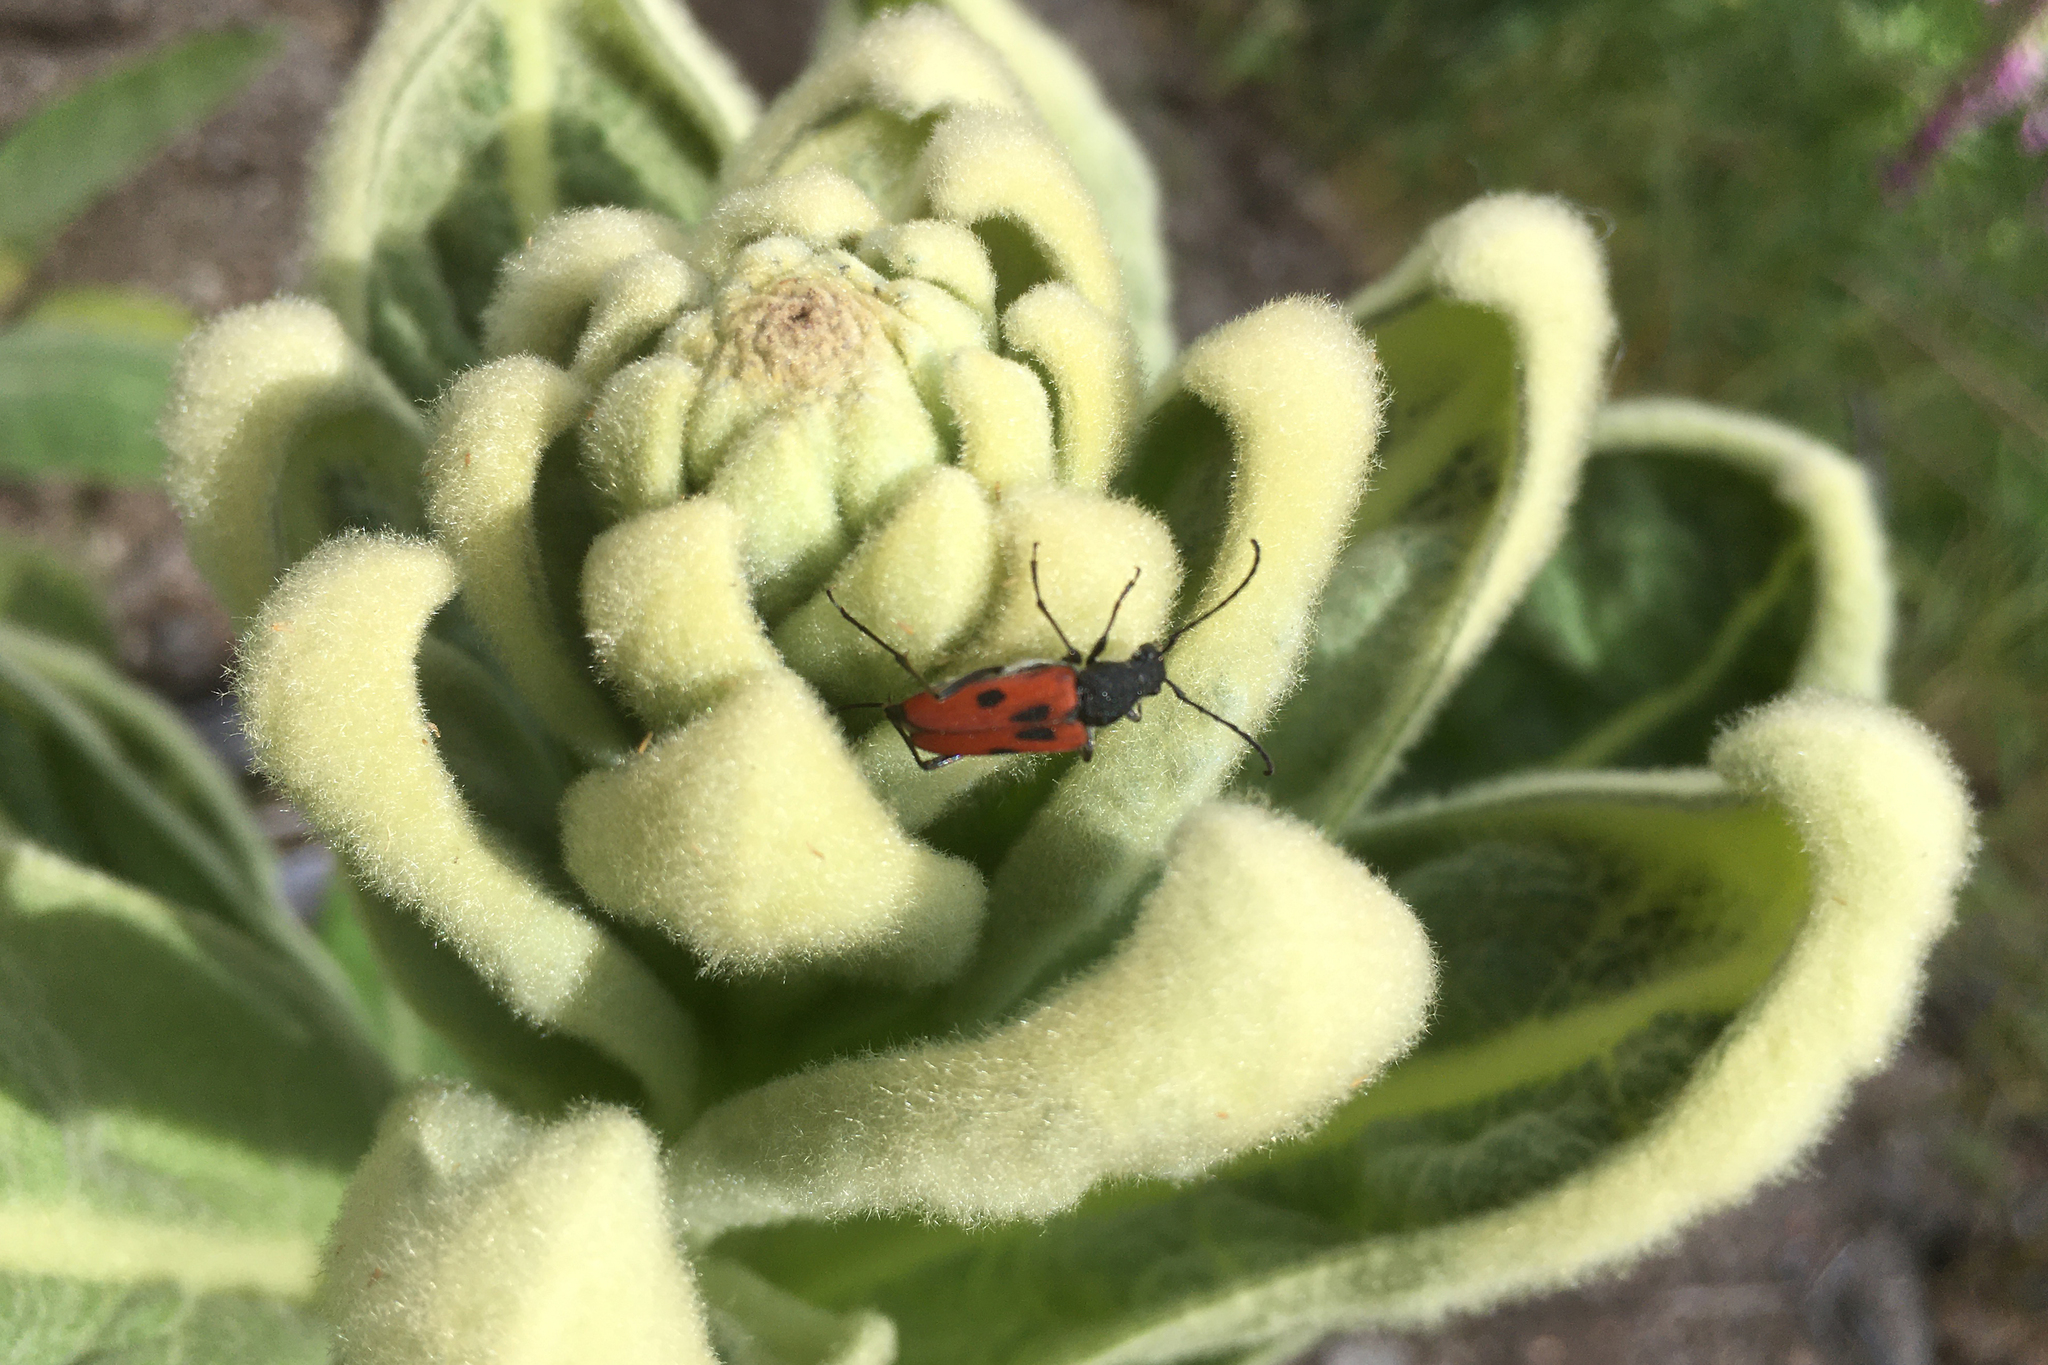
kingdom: Animalia
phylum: Arthropoda
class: Insecta
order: Coleoptera
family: Cerambycidae
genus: Anastrangalia
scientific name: Anastrangalia laetifica
